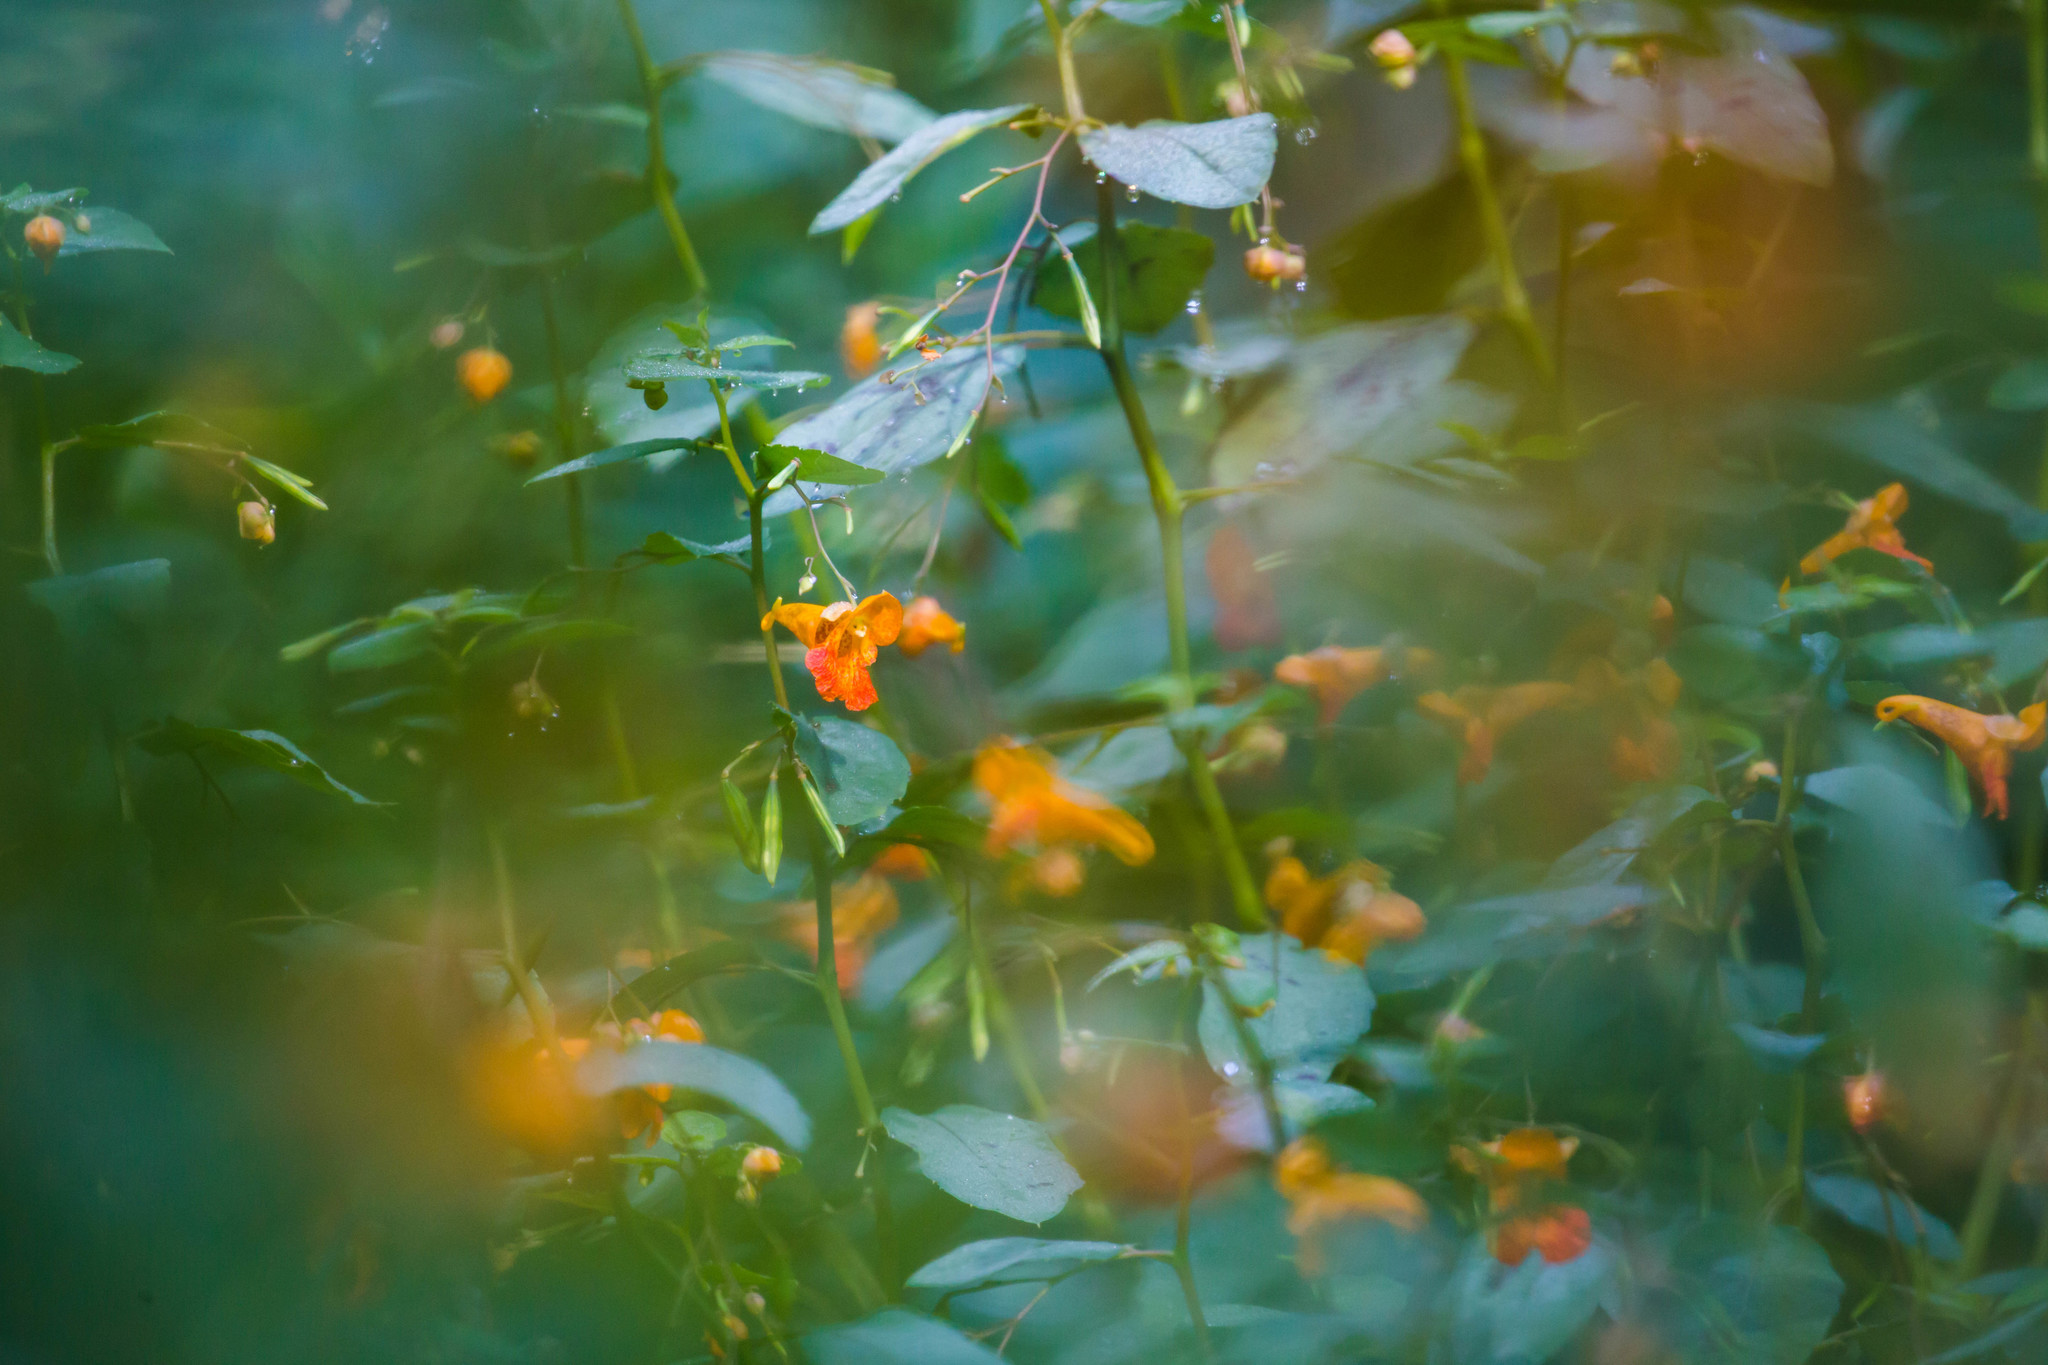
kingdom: Plantae
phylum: Tracheophyta
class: Magnoliopsida
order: Ericales
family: Balsaminaceae
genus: Impatiens
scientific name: Impatiens capensis
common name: Orange balsam
